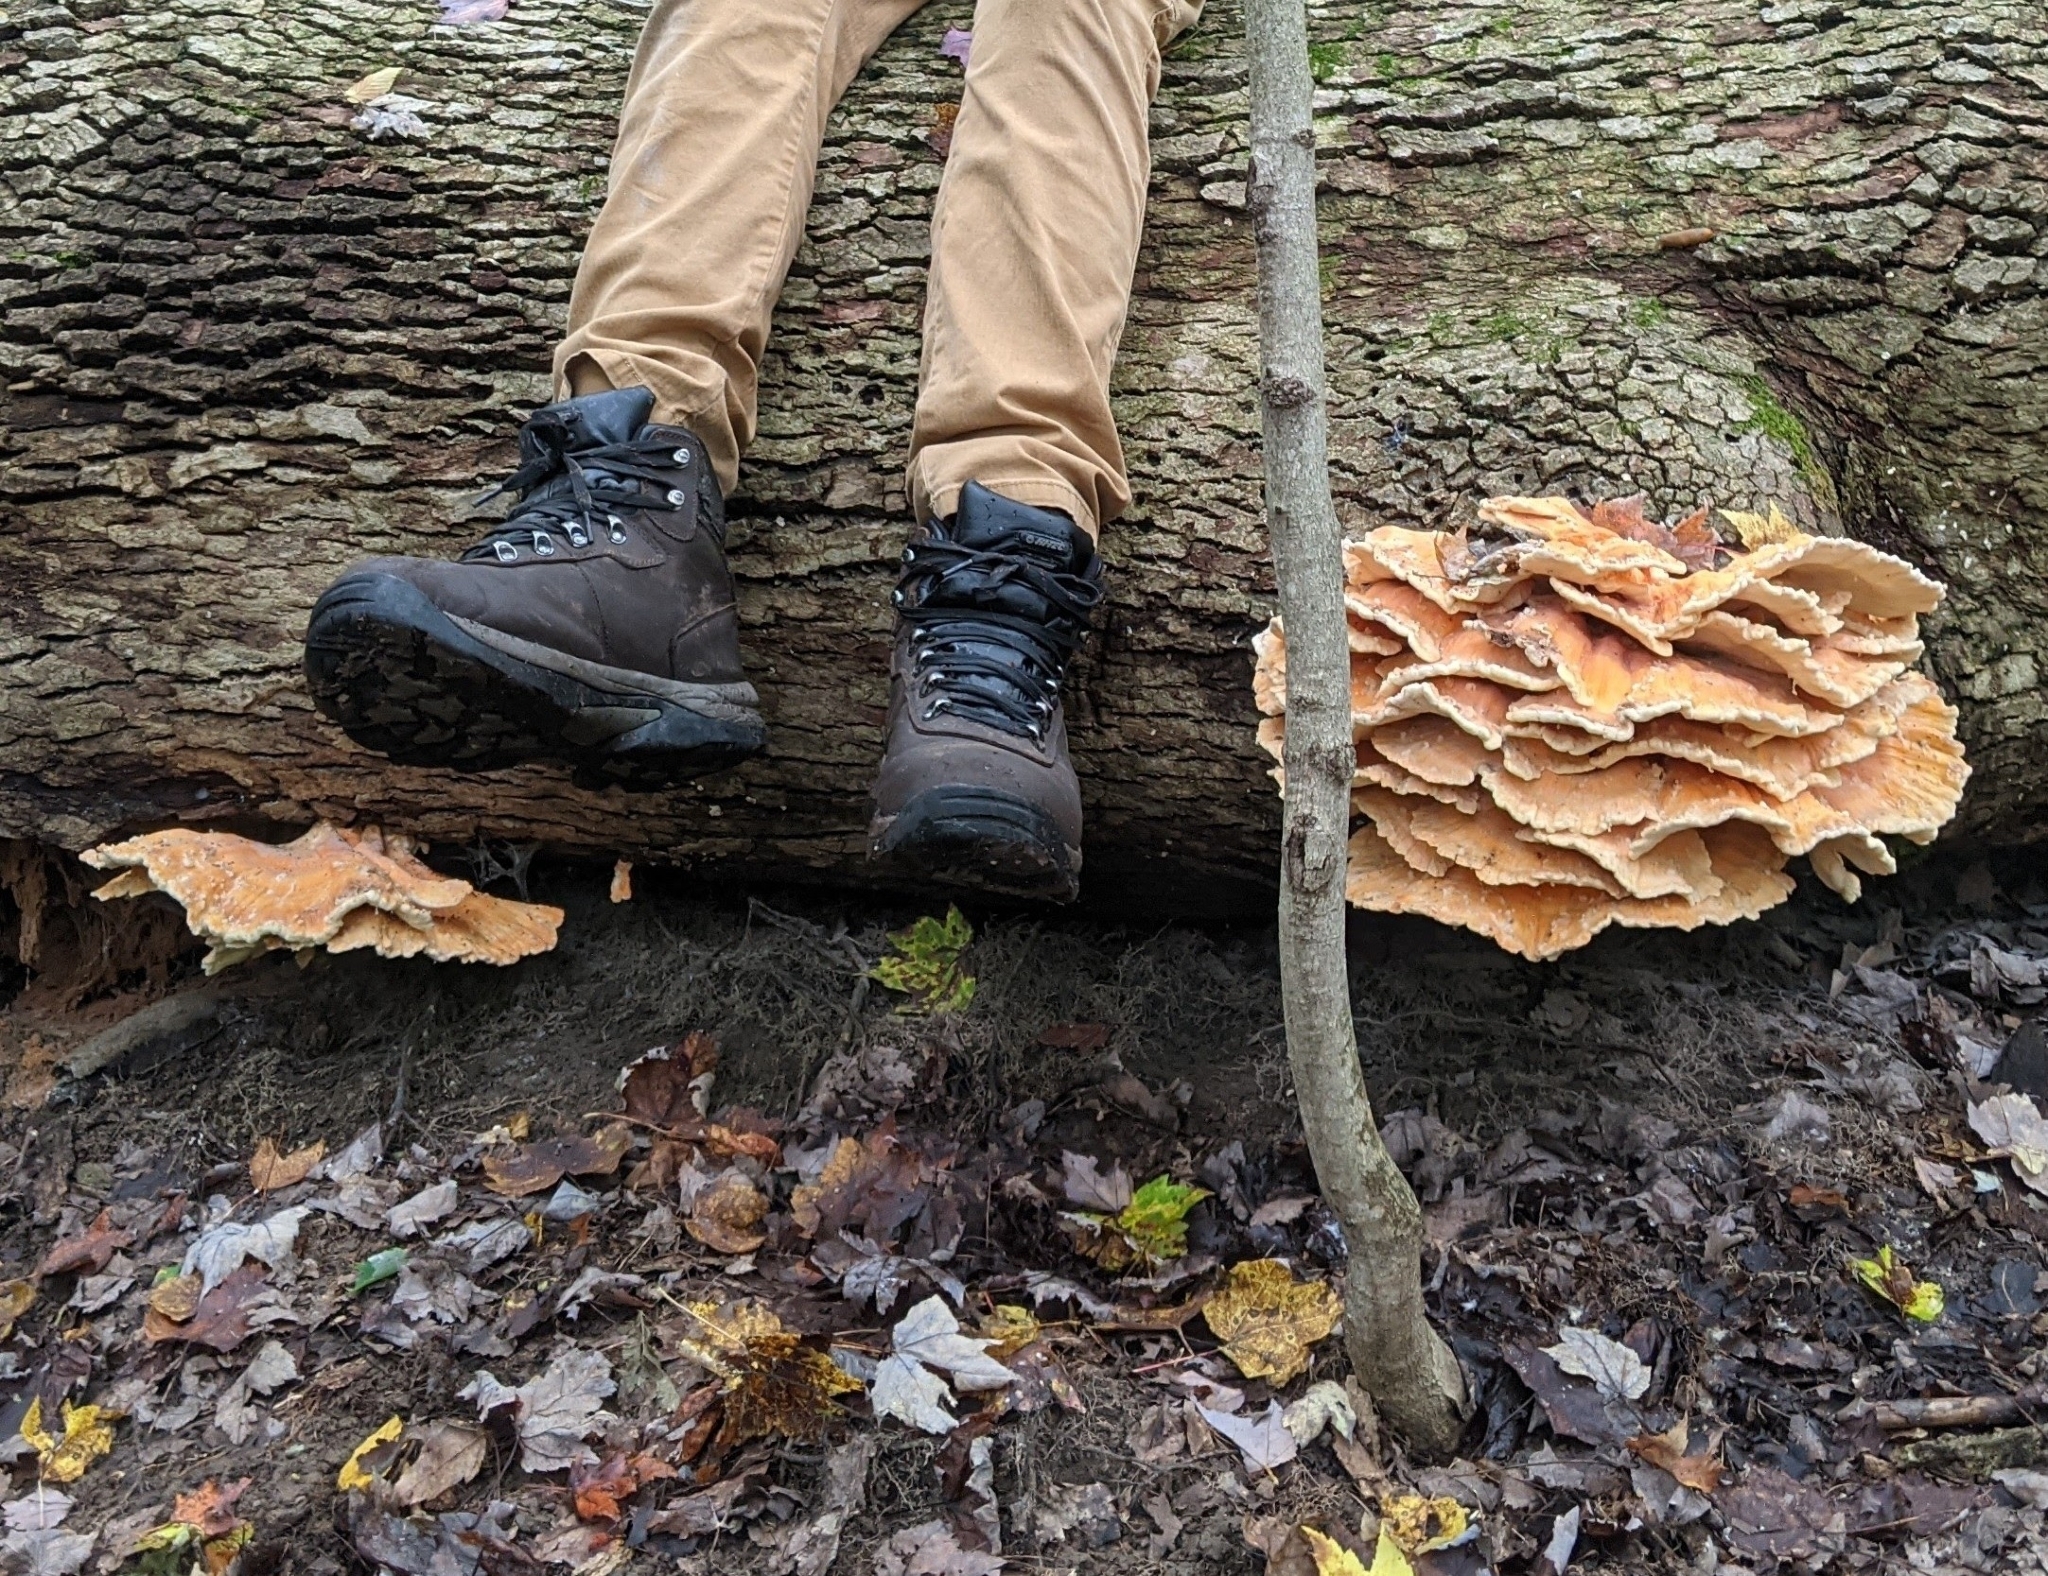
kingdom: Fungi
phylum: Basidiomycota
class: Agaricomycetes
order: Polyporales
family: Laetiporaceae
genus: Laetiporus
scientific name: Laetiporus sulphureus
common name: Chicken of the woods
